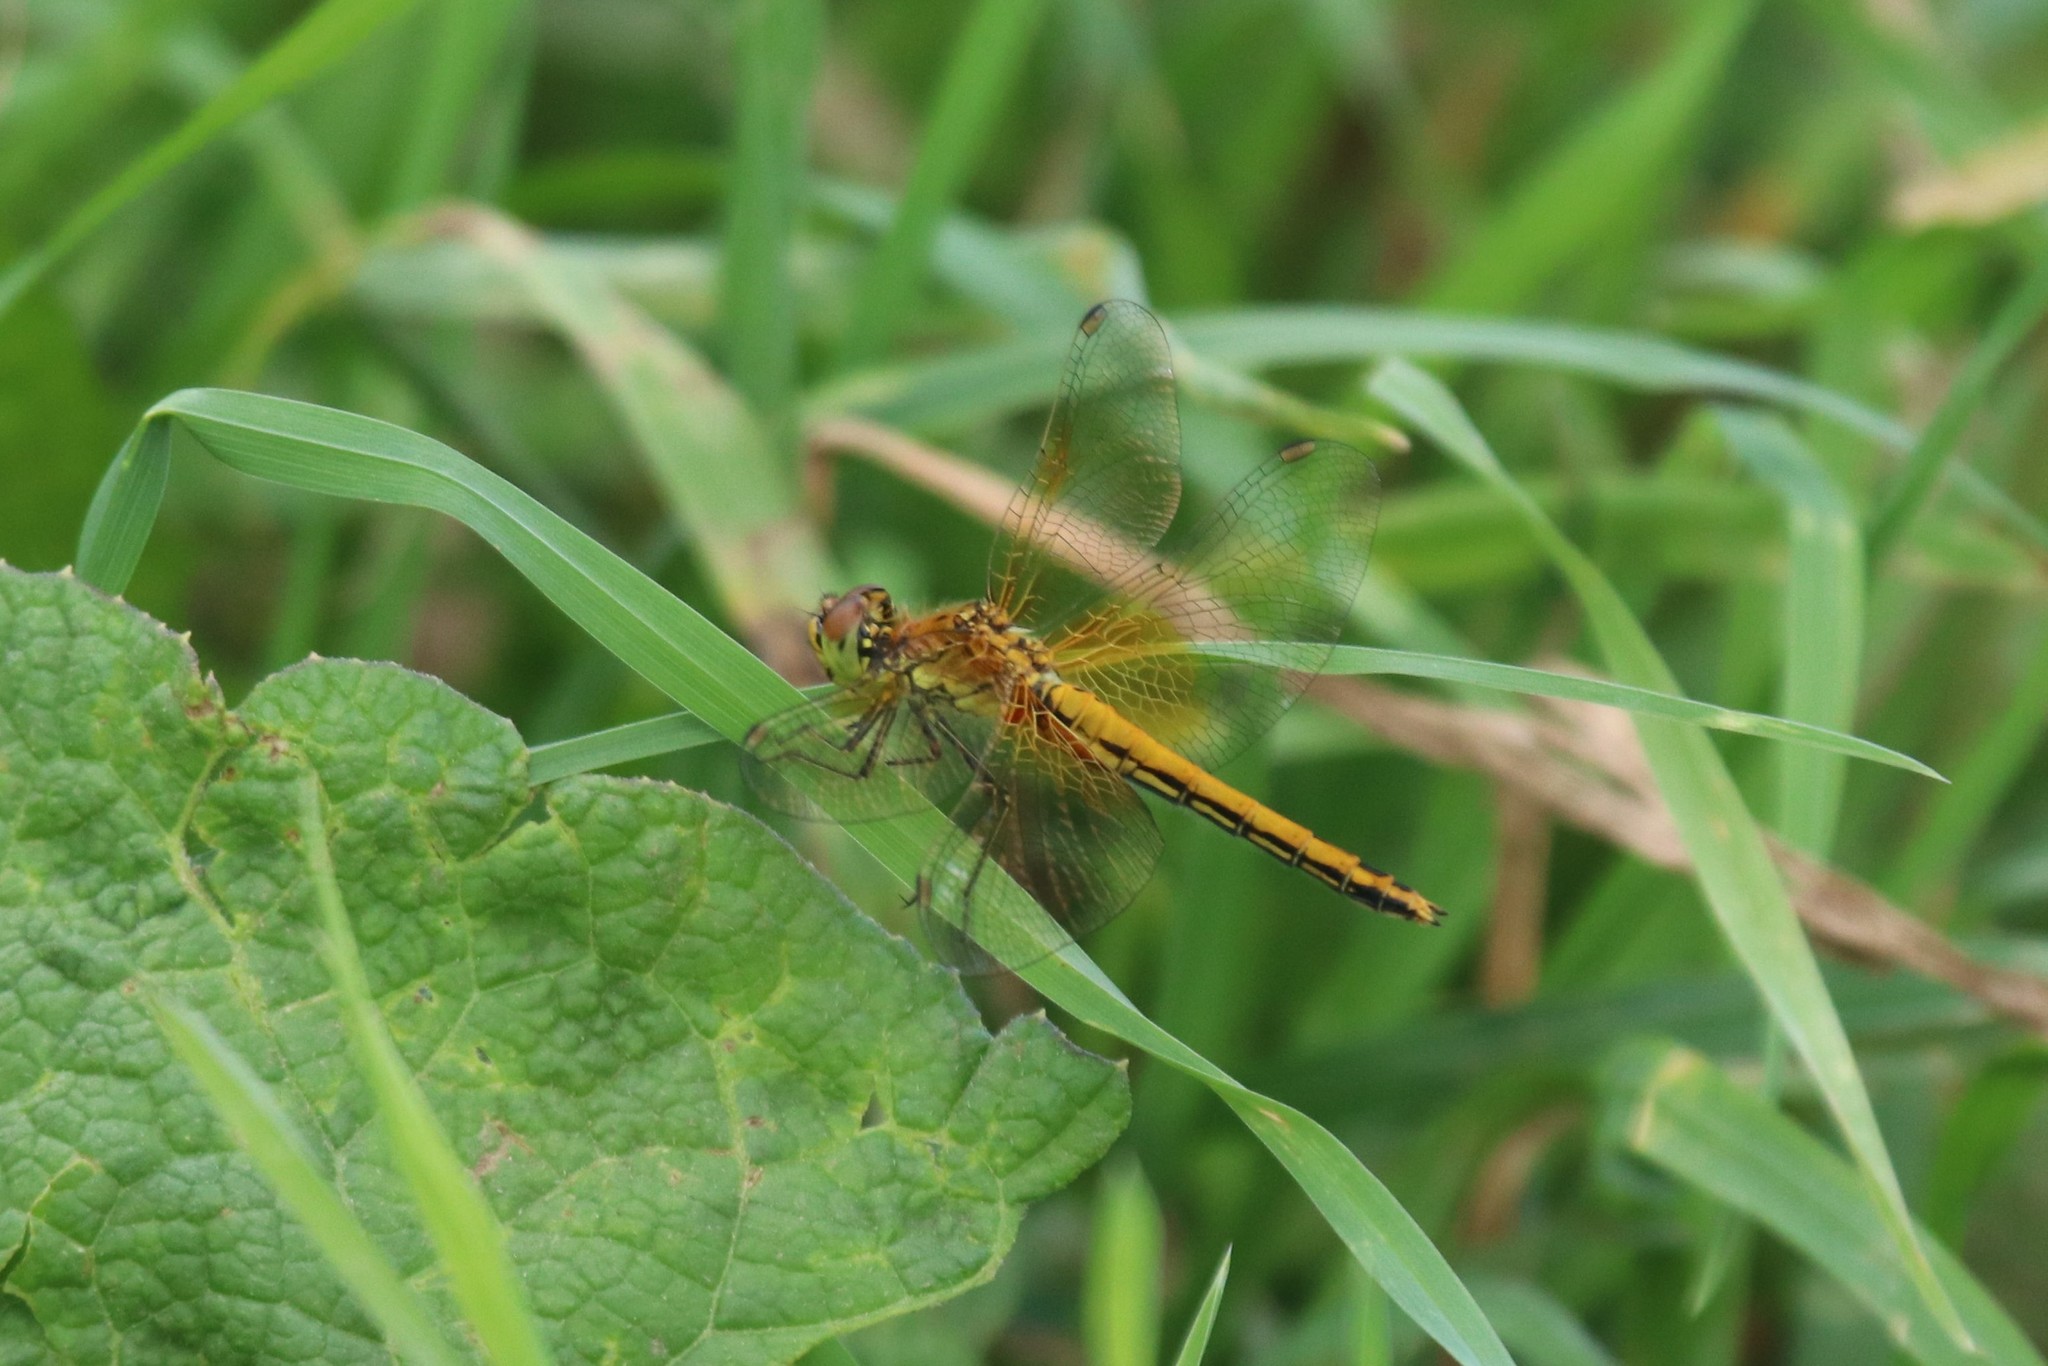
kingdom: Animalia
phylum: Arthropoda
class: Insecta
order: Odonata
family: Libellulidae
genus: Sympetrum
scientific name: Sympetrum flaveolum
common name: Yellow-winged darter
